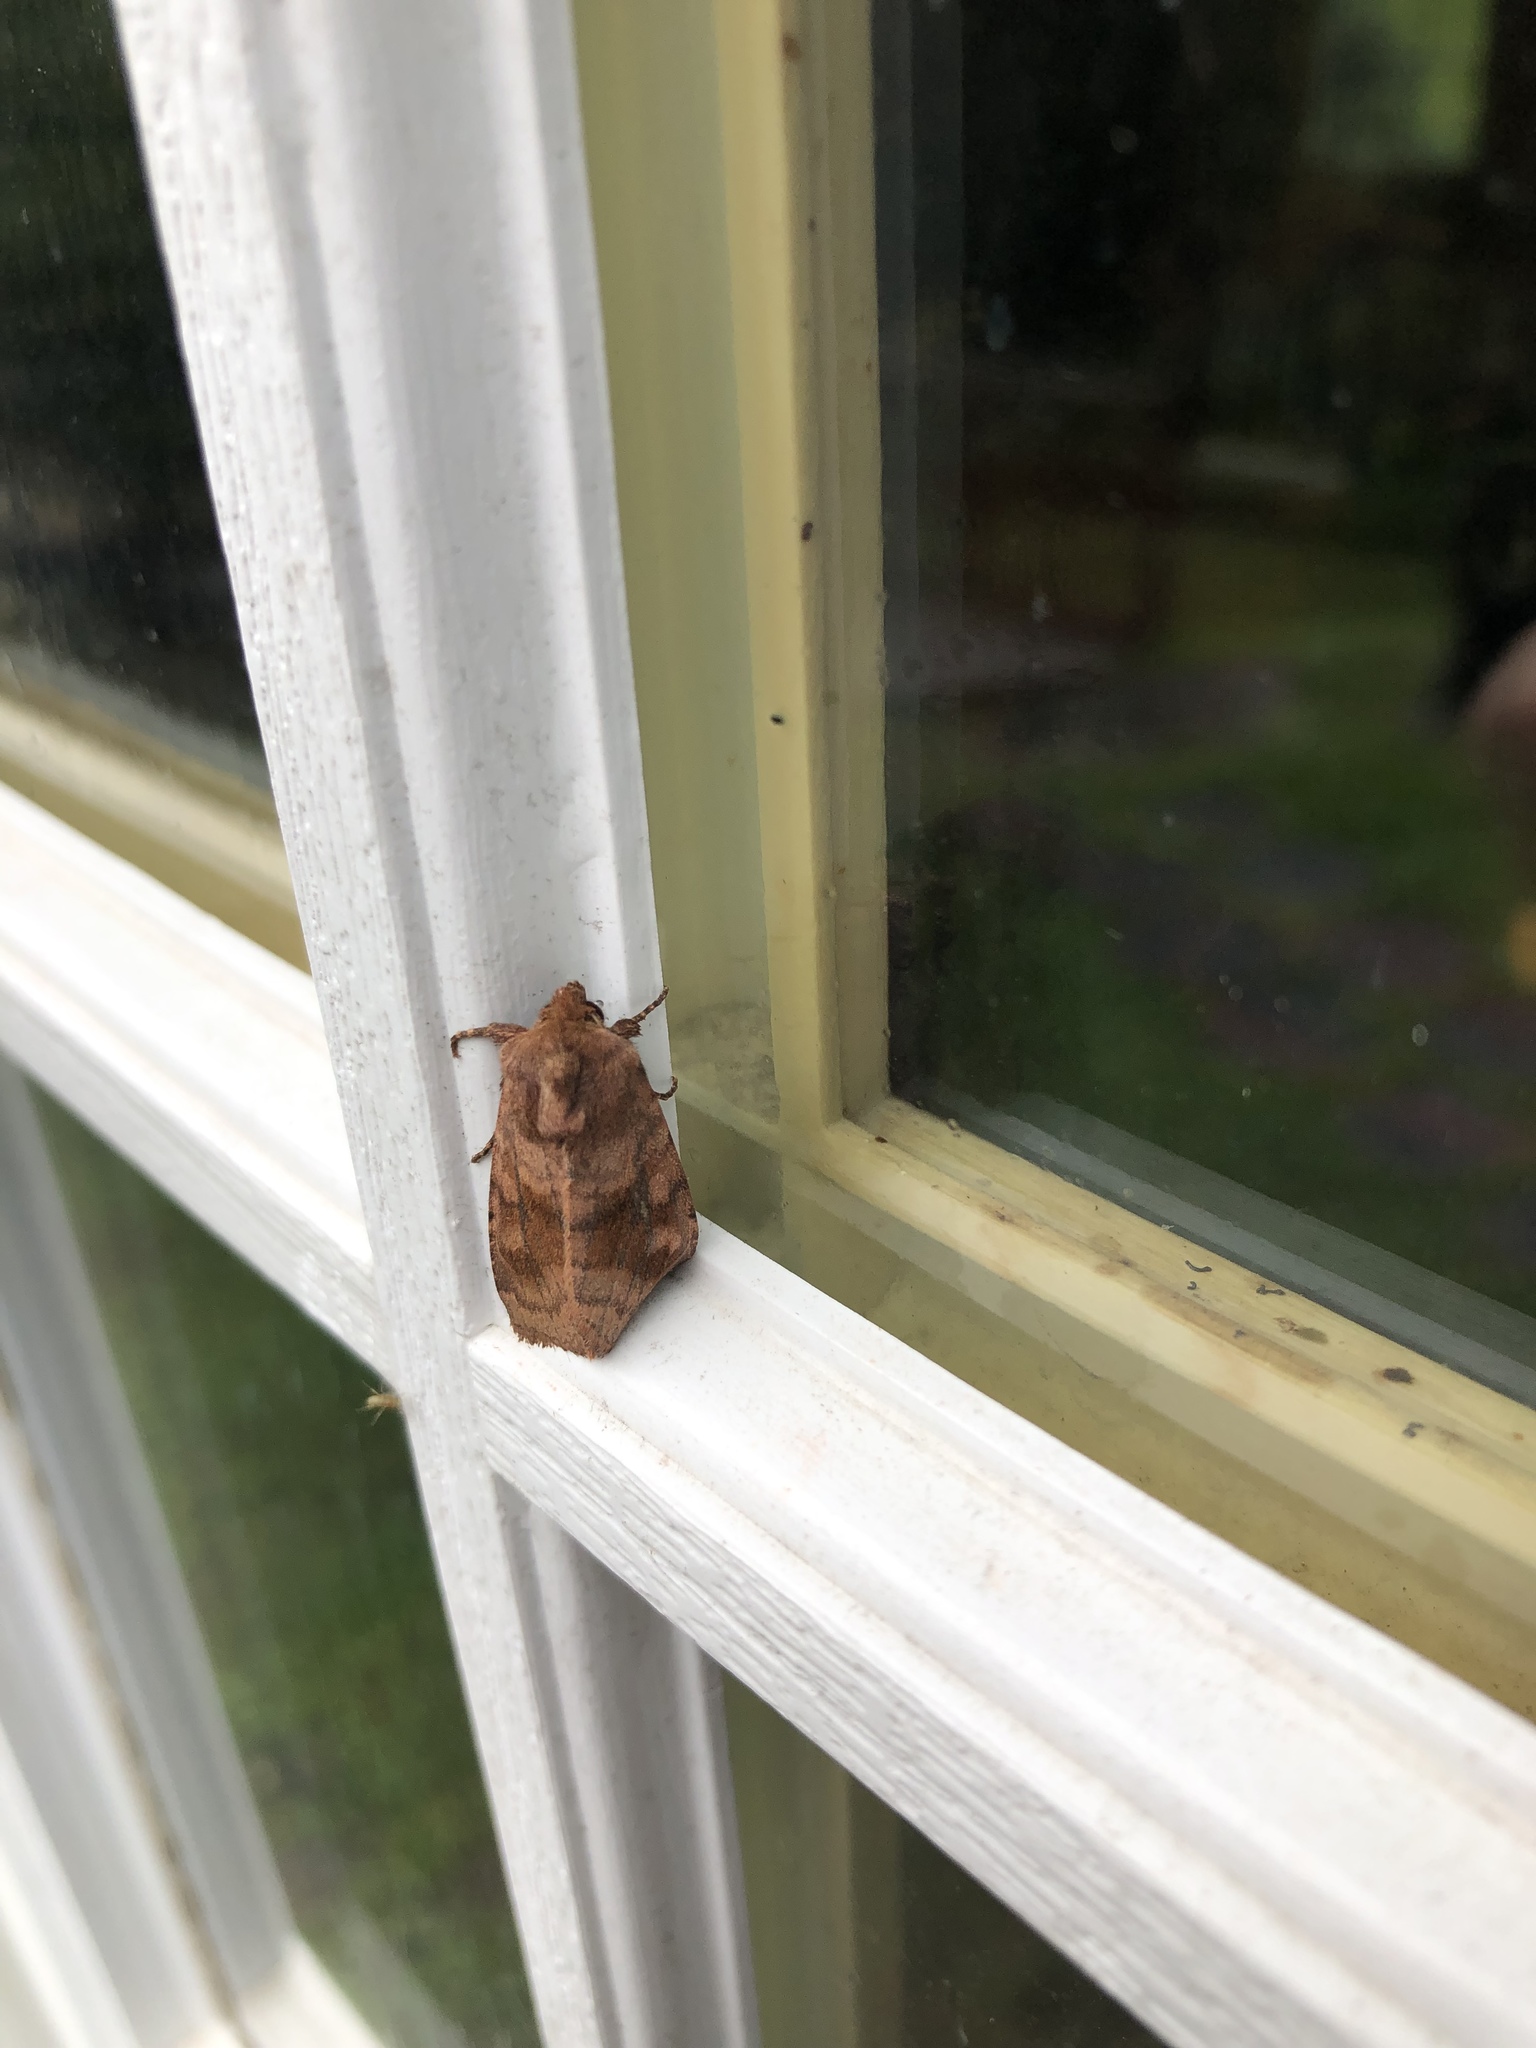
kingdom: Animalia
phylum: Arthropoda
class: Insecta
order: Lepidoptera
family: Noctuidae
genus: Nephelodes
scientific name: Nephelodes minians
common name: Bronzed cutworm
